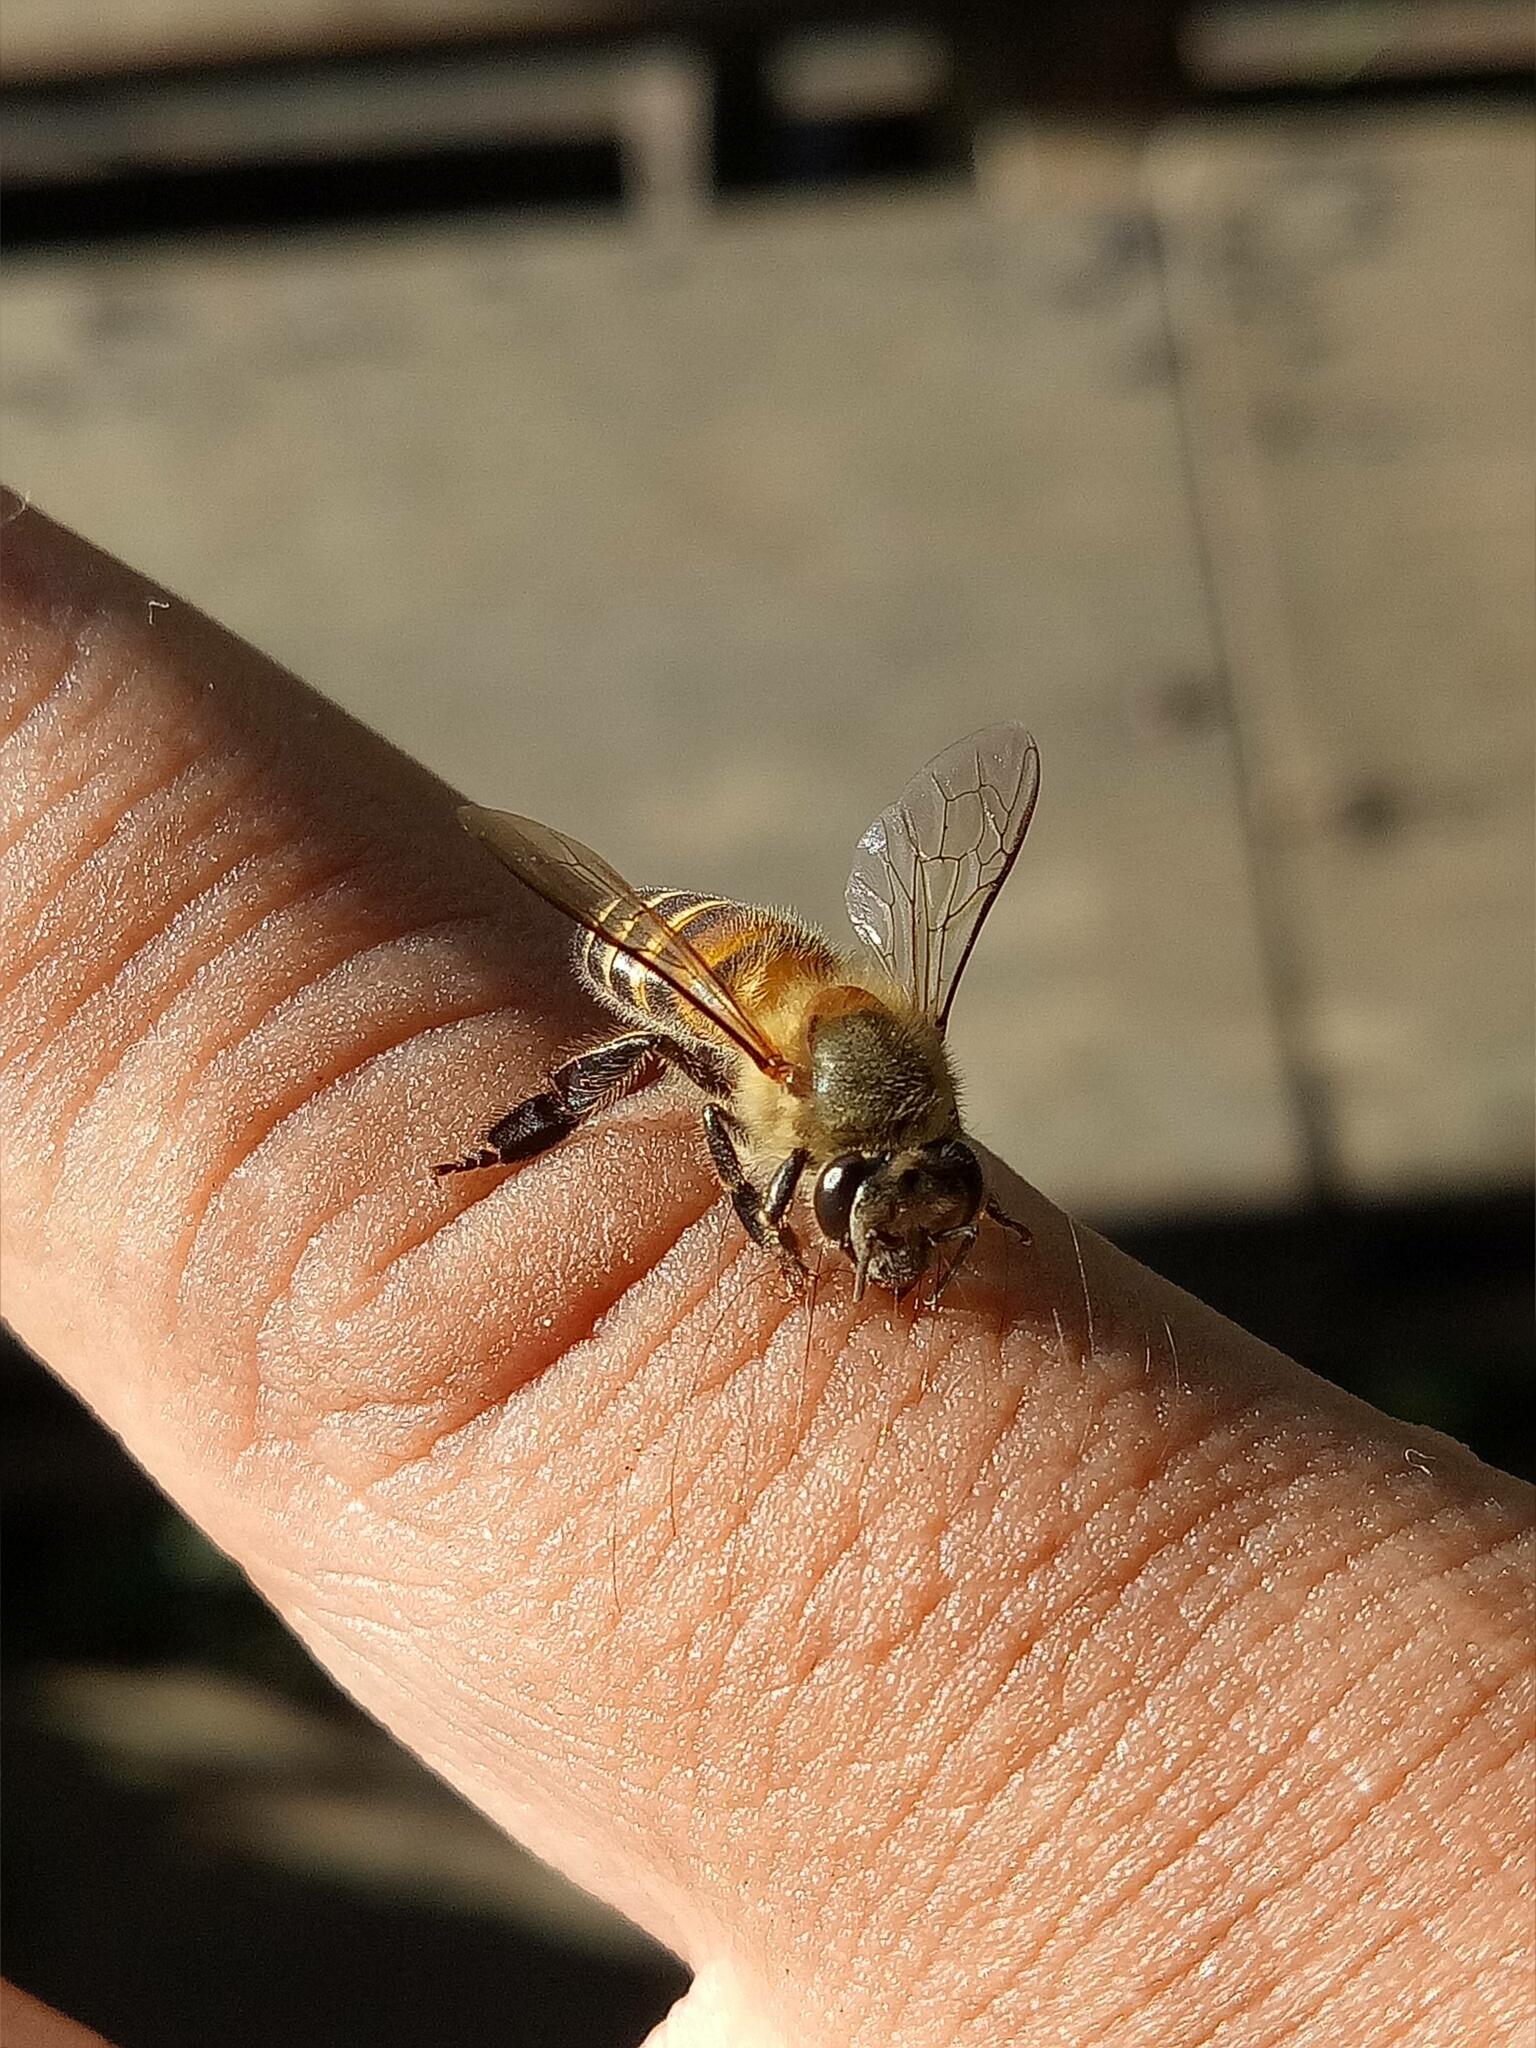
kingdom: Animalia
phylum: Arthropoda
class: Insecta
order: Hymenoptera
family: Apidae
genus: Apis
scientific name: Apis cerana
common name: Honey bee
